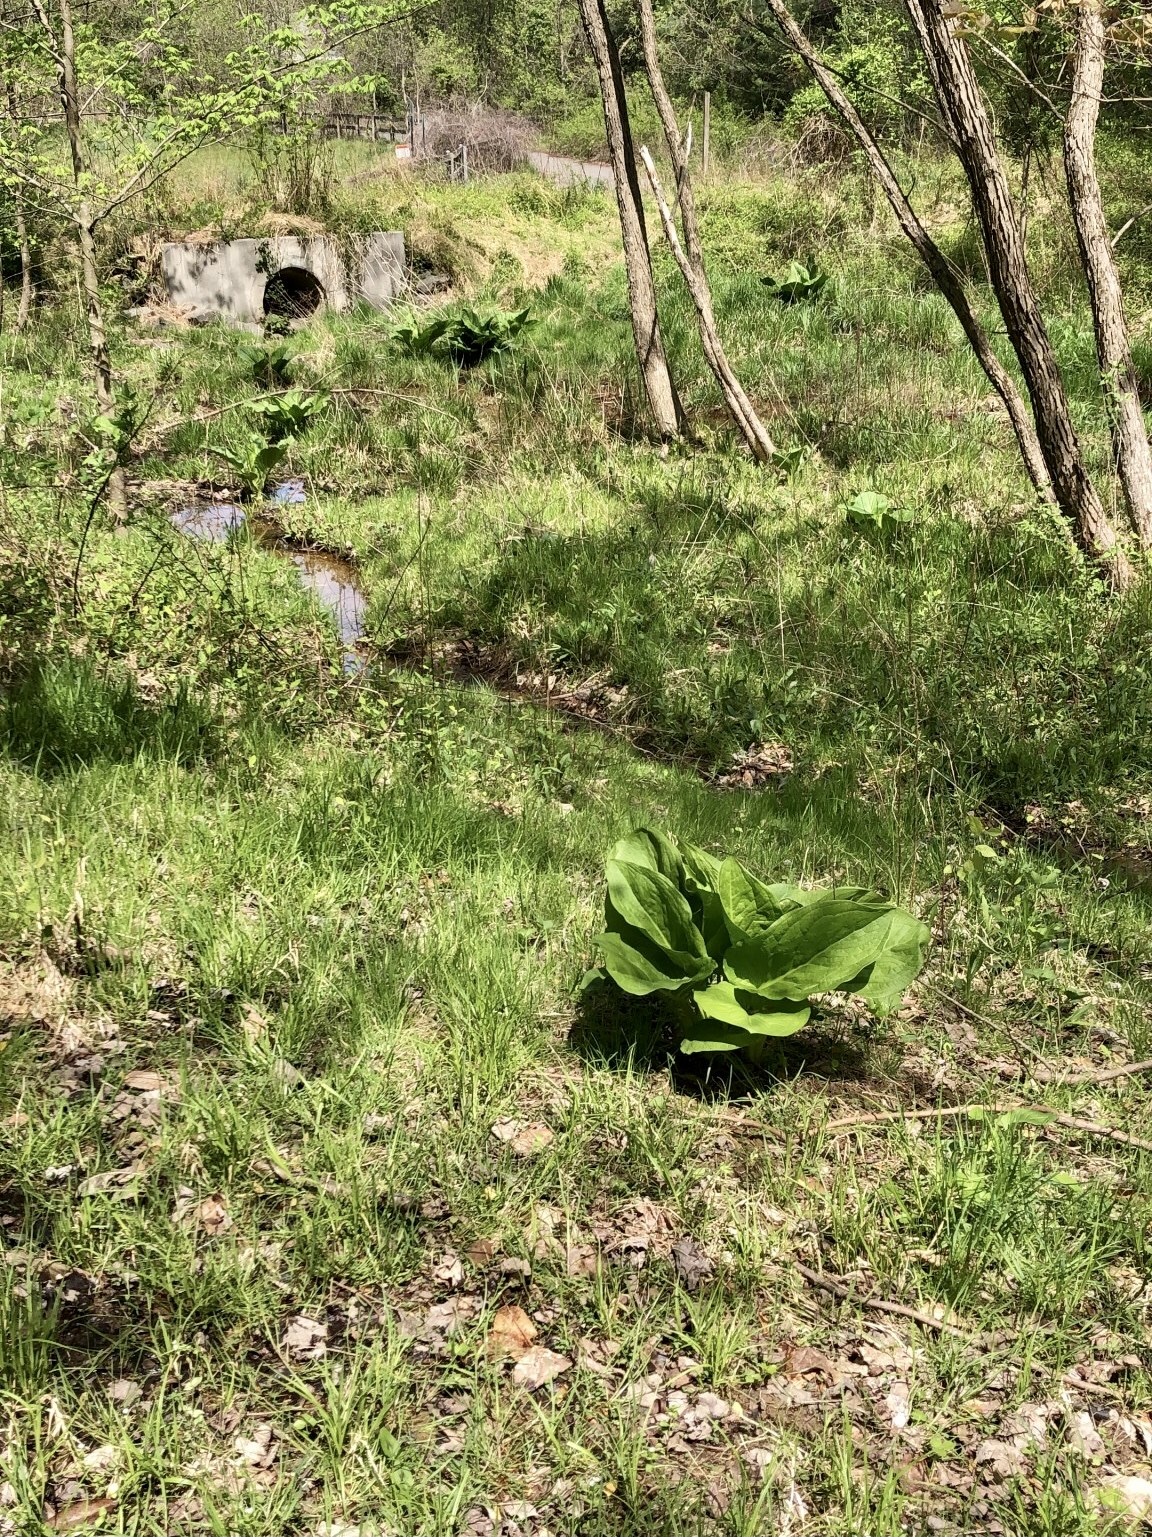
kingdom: Plantae
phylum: Tracheophyta
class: Liliopsida
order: Alismatales
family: Araceae
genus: Symplocarpus
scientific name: Symplocarpus foetidus
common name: Eastern skunk cabbage
